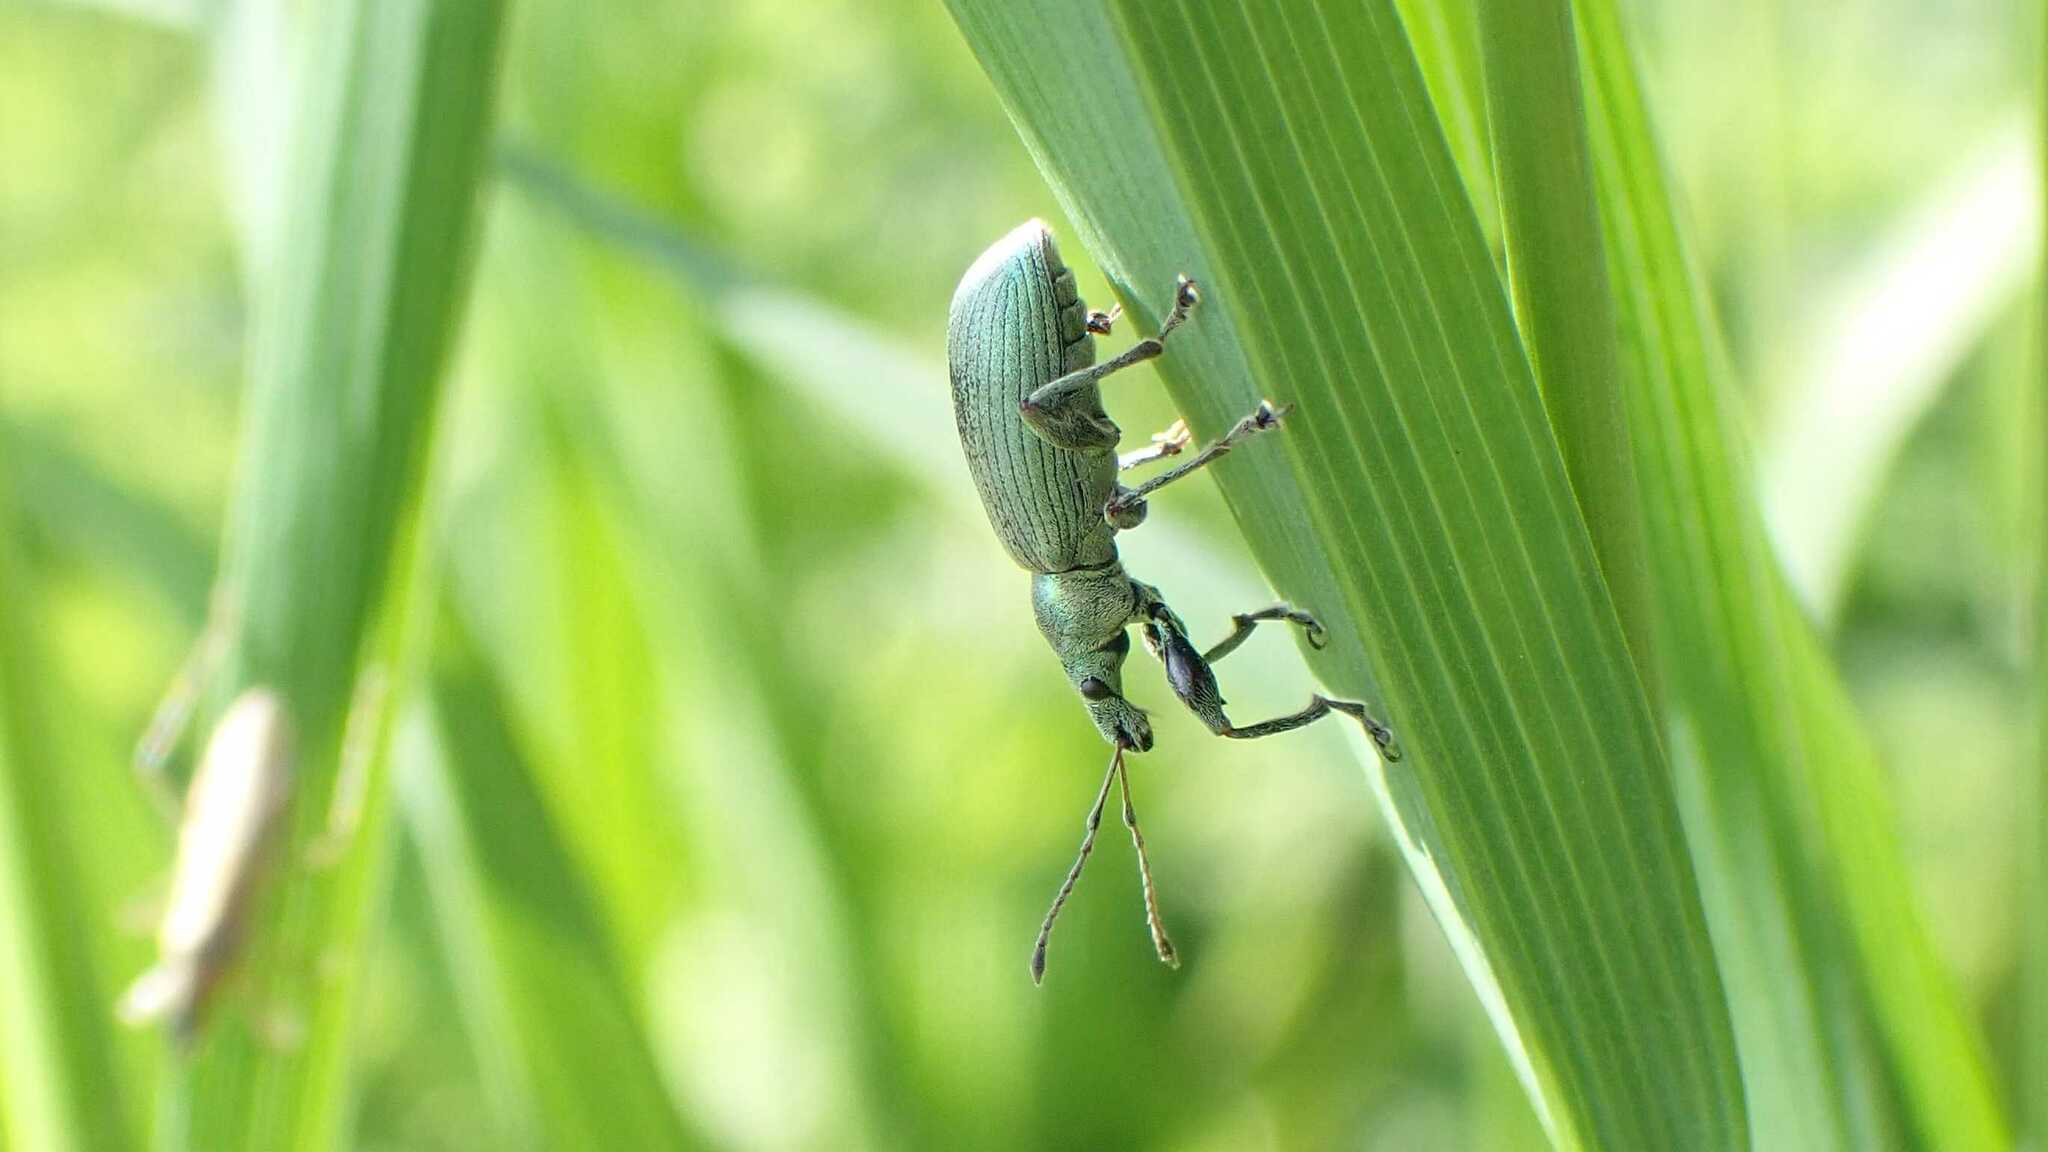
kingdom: Animalia
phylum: Arthropoda
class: Insecta
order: Coleoptera
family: Curculionidae
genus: Phyllobius
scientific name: Phyllobius pomaceus
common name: Green nettle weevil
